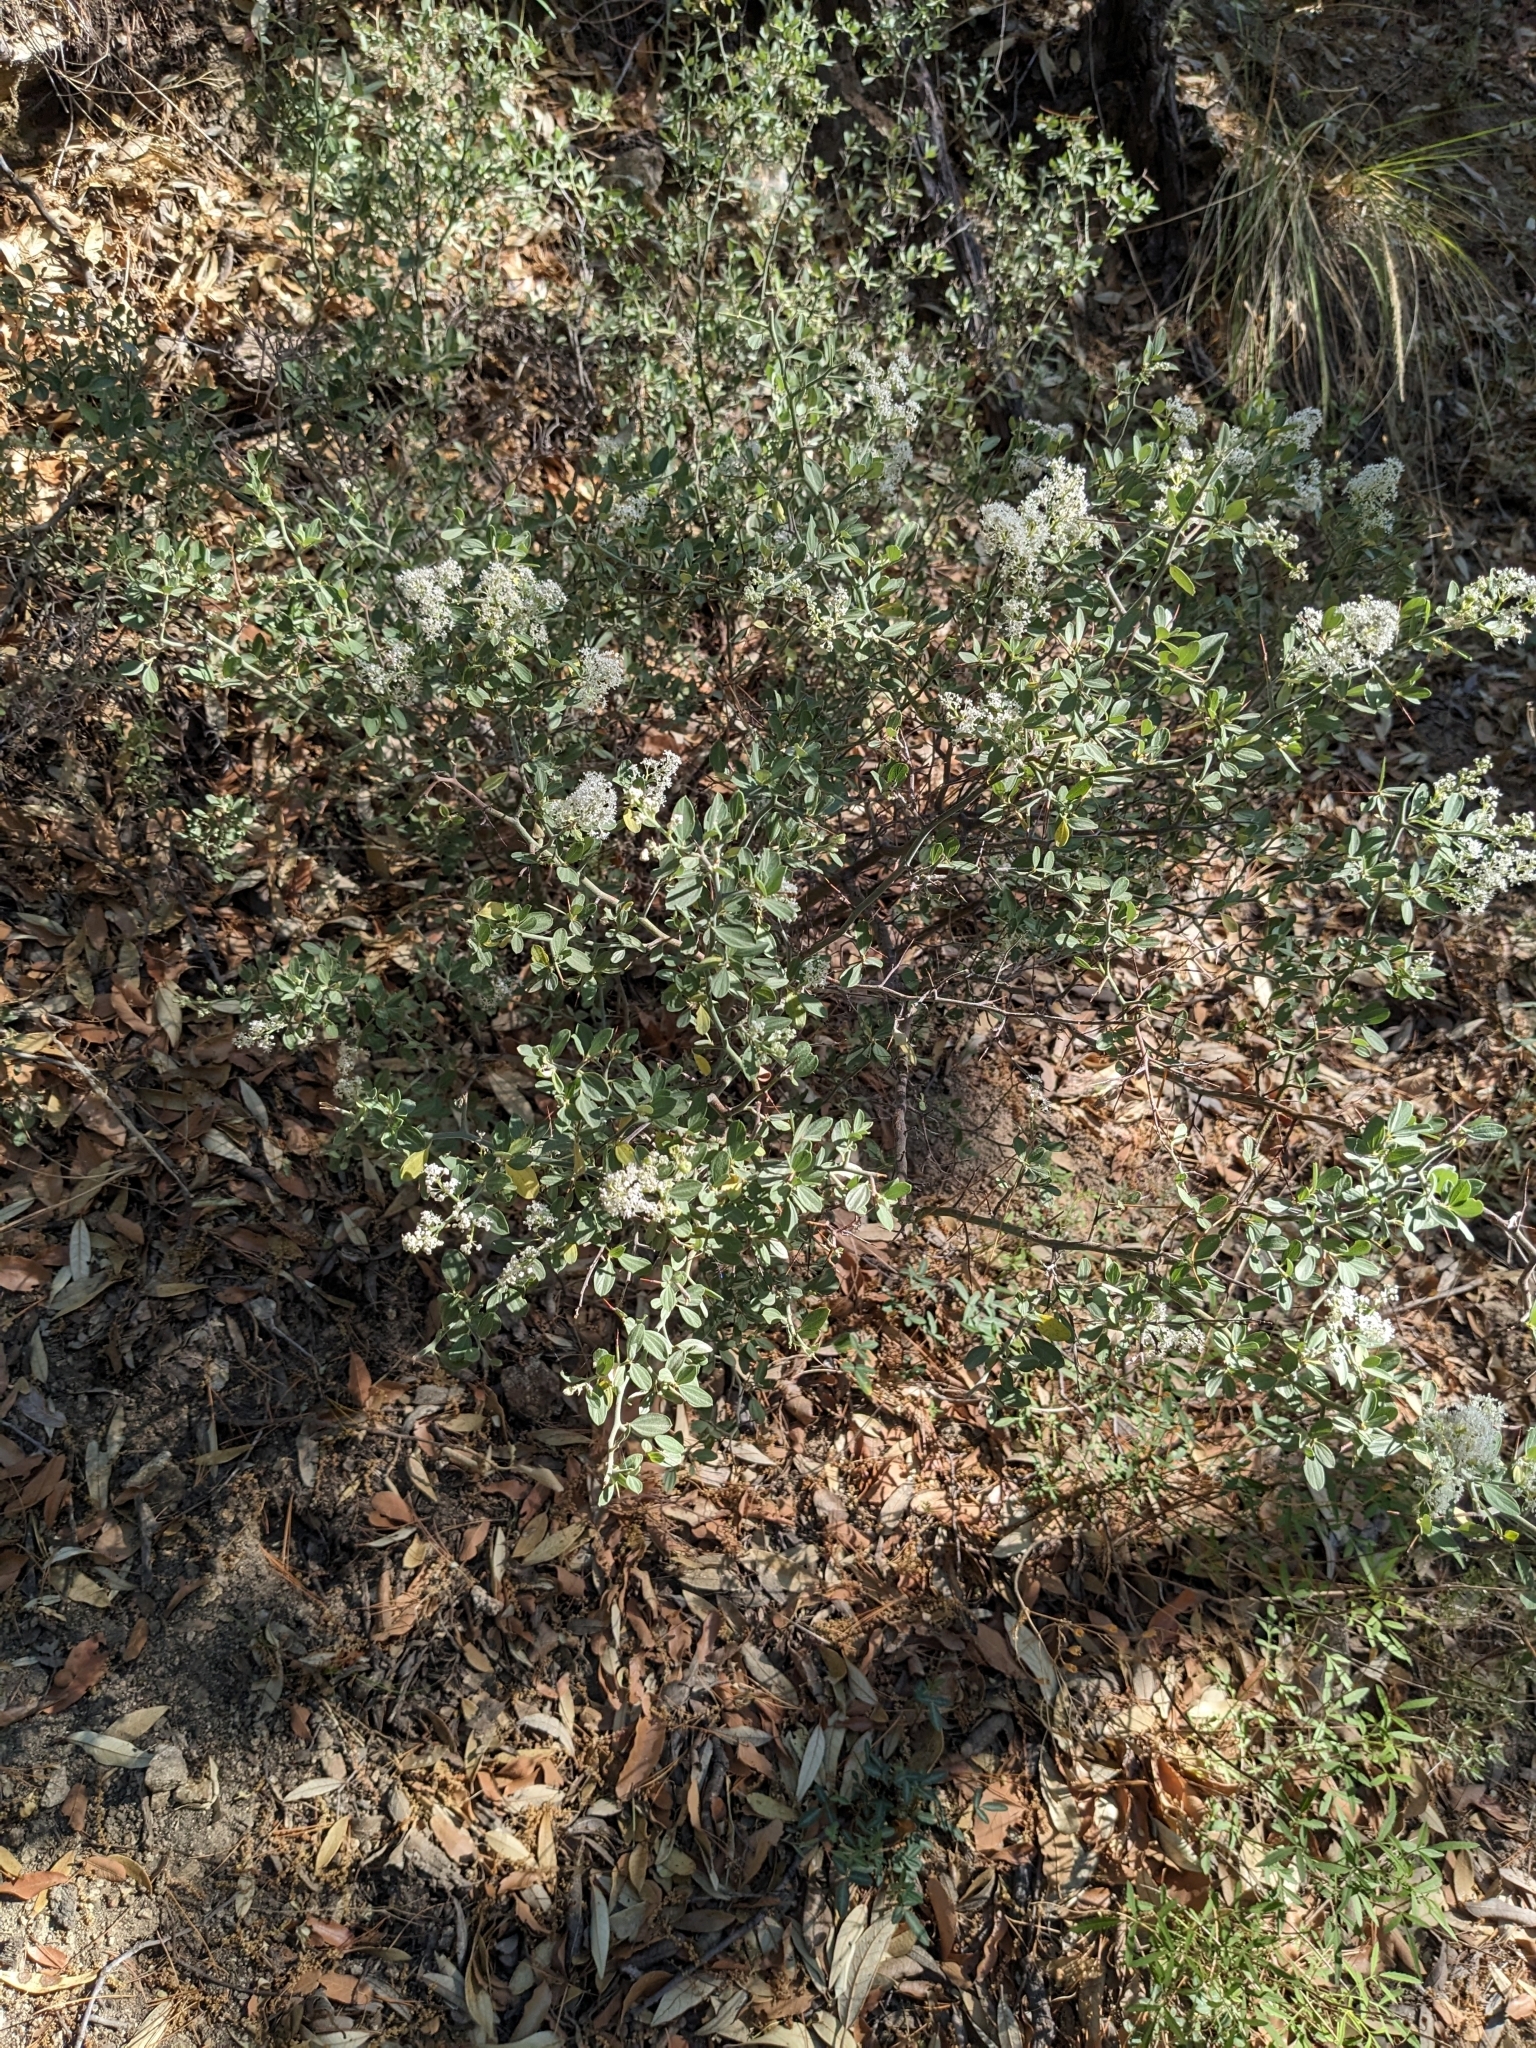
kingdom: Plantae
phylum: Tracheophyta
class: Magnoliopsida
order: Rosales
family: Rhamnaceae
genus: Ceanothus
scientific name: Ceanothus fendleri
